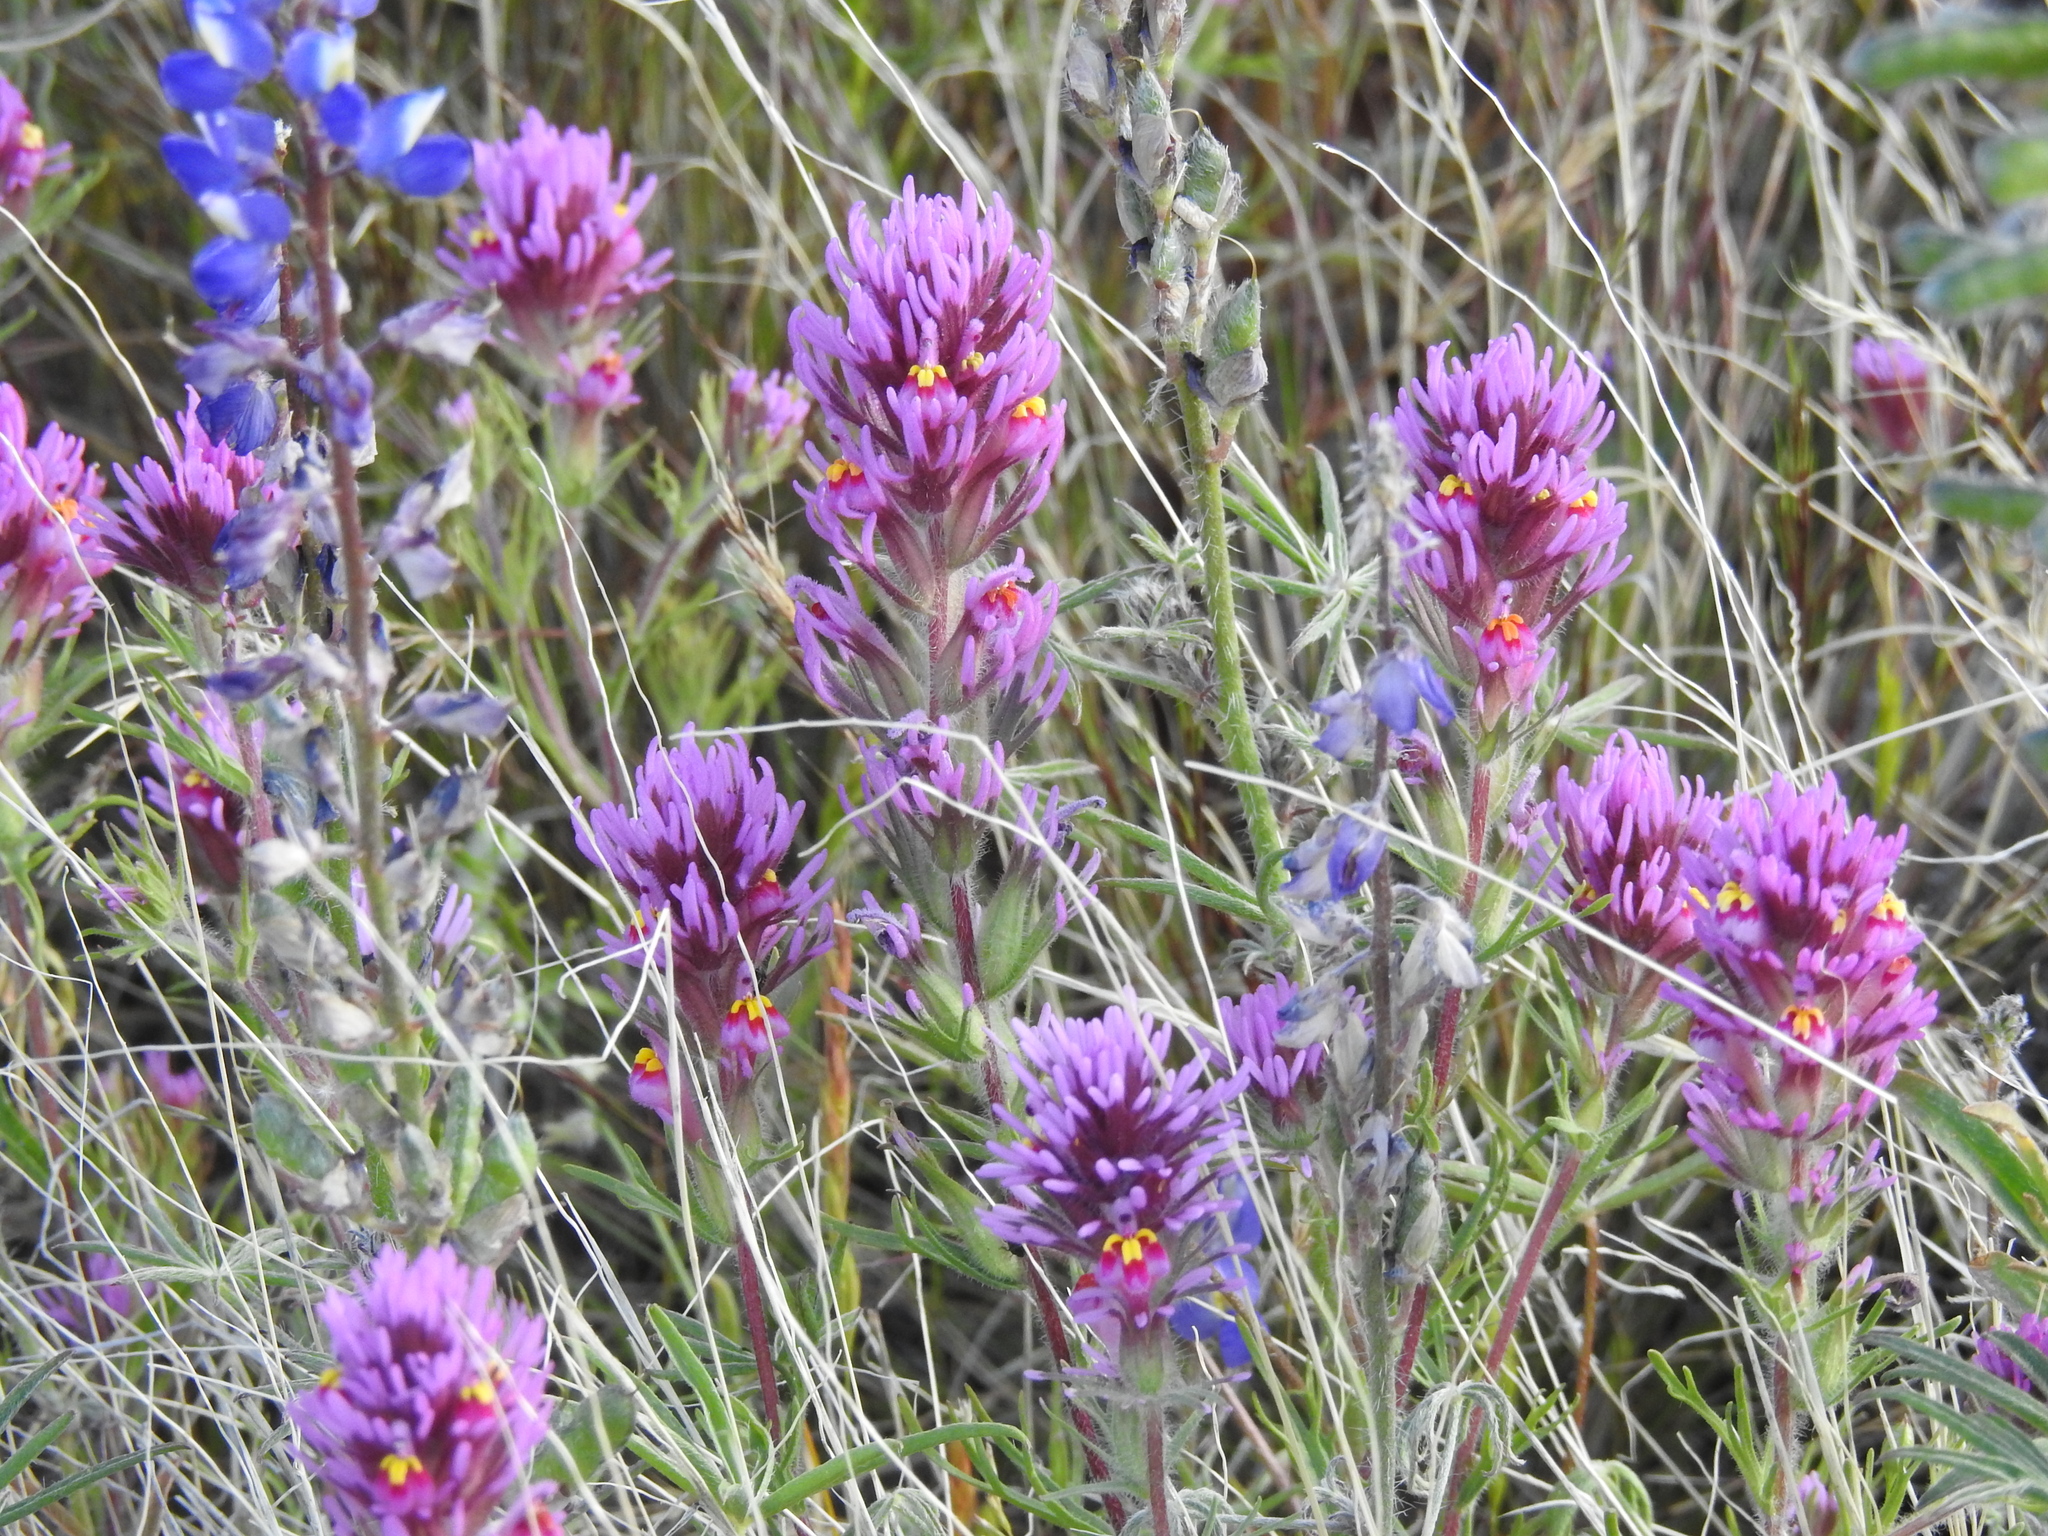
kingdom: Plantae
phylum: Tracheophyta
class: Magnoliopsida
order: Lamiales
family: Orobanchaceae
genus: Castilleja
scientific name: Castilleja exserta
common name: Purple owl-clover
